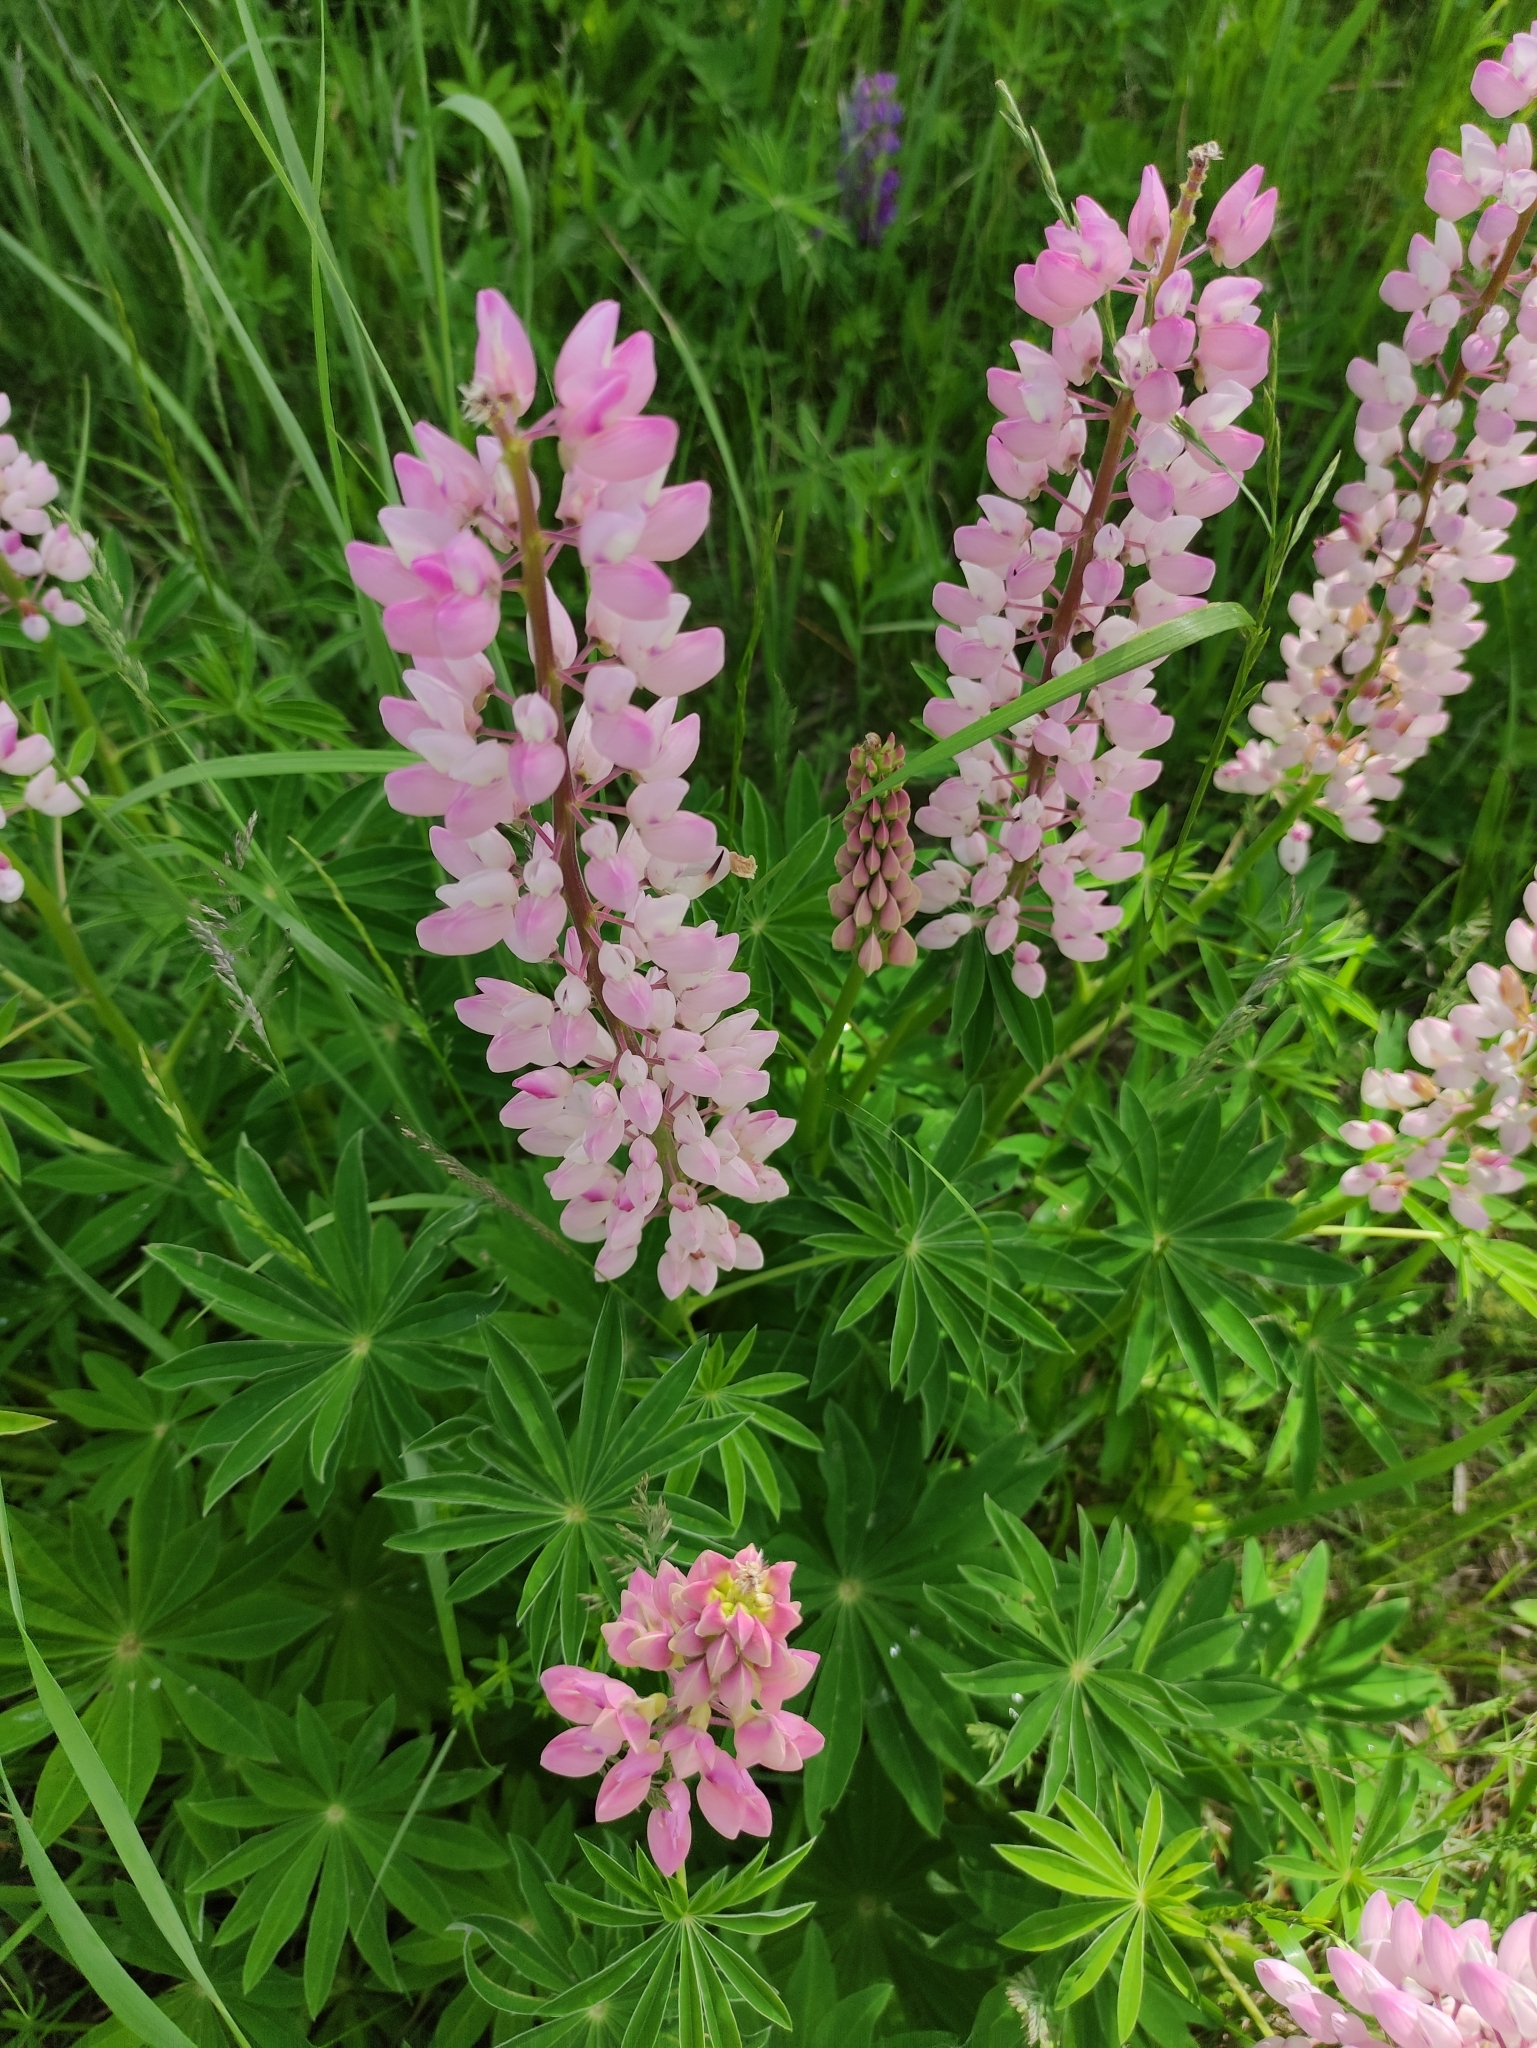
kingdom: Plantae
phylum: Tracheophyta
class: Magnoliopsida
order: Fabales
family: Fabaceae
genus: Lupinus
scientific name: Lupinus polyphyllus
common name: Garden lupin
